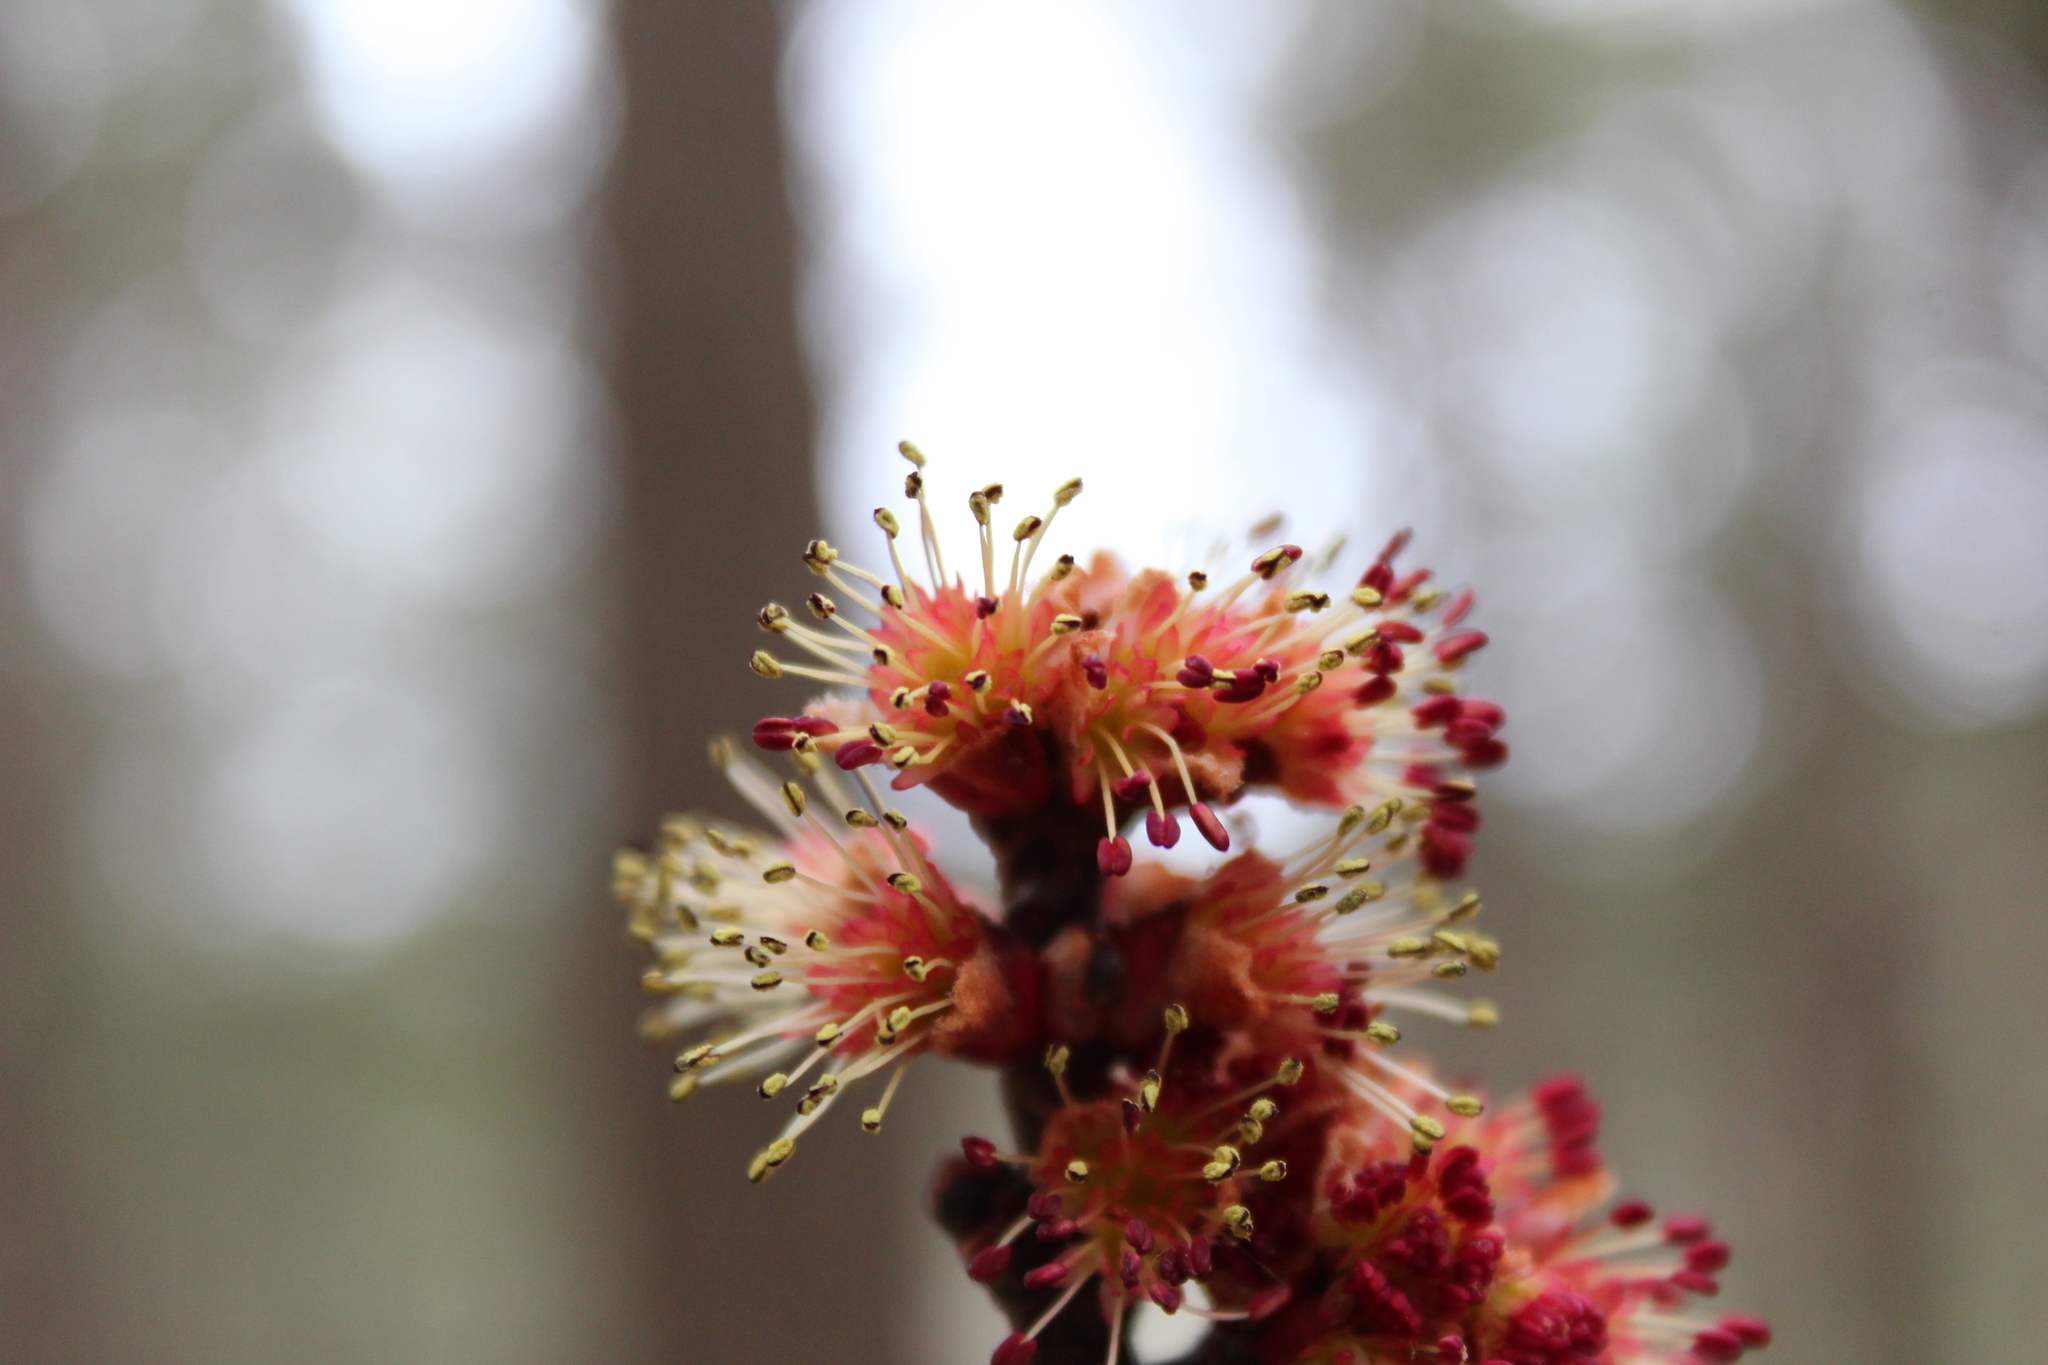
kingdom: Plantae
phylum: Tracheophyta
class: Magnoliopsida
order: Sapindales
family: Sapindaceae
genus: Acer
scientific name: Acer rubrum
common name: Red maple
